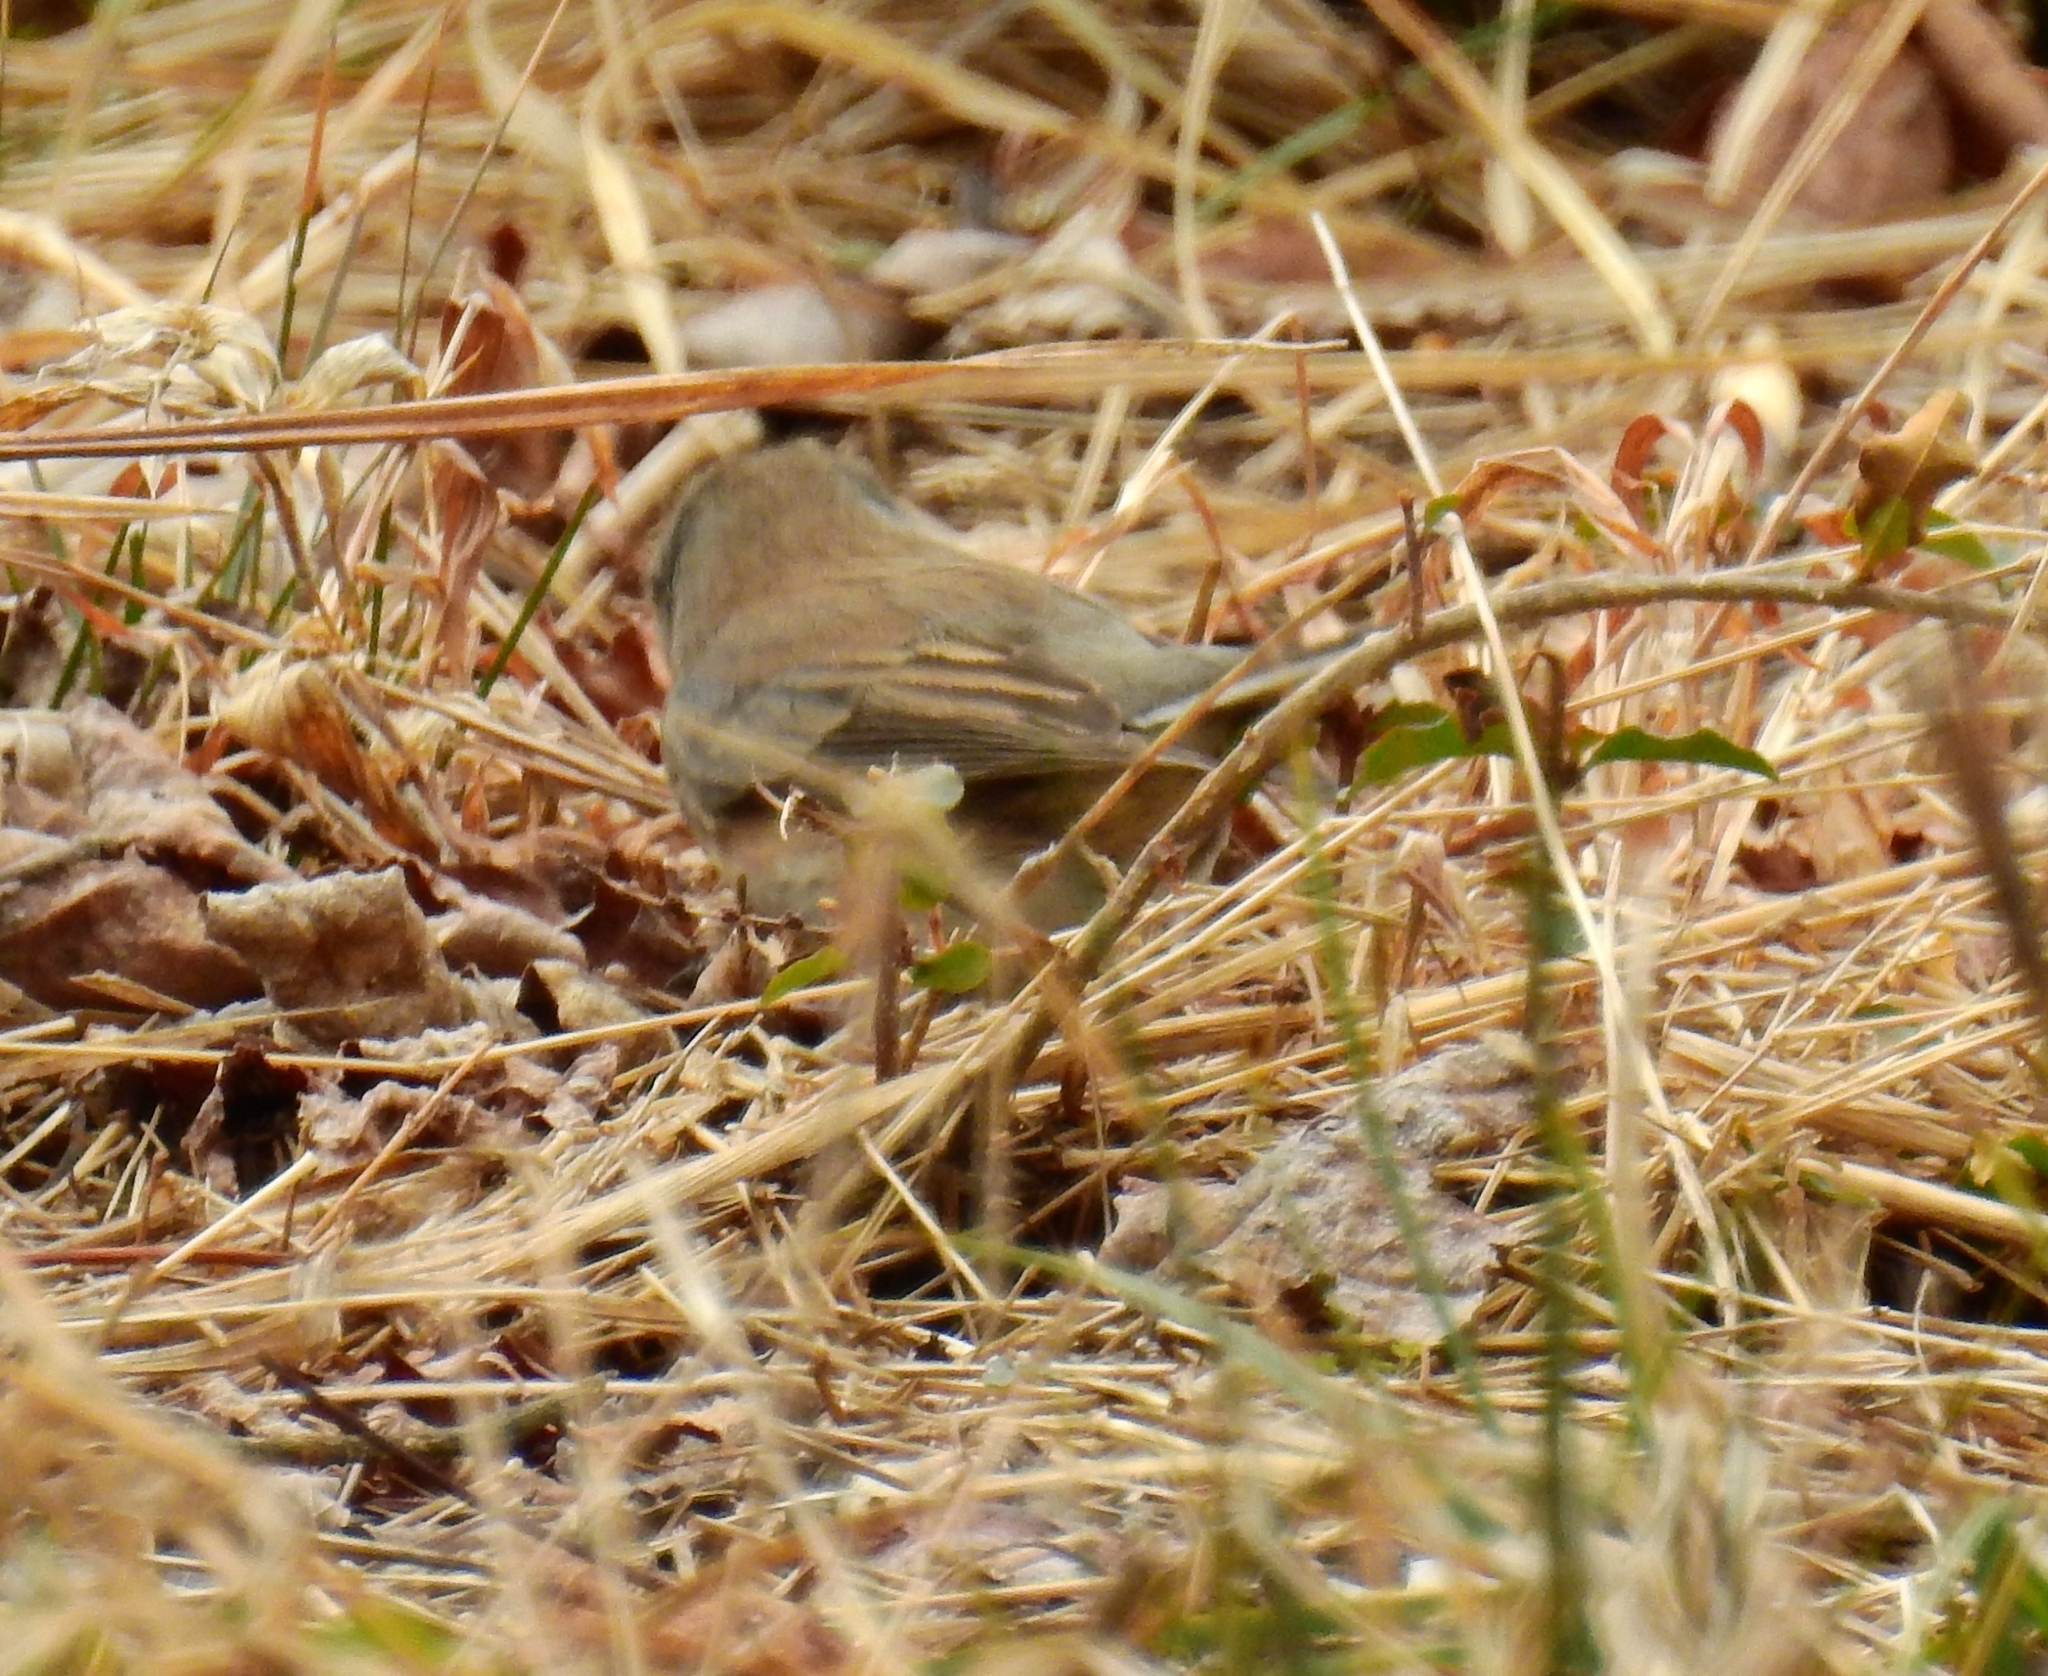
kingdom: Animalia
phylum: Chordata
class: Aves
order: Passeriformes
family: Passerellidae
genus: Junco
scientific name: Junco hyemalis
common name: Dark-eyed junco
